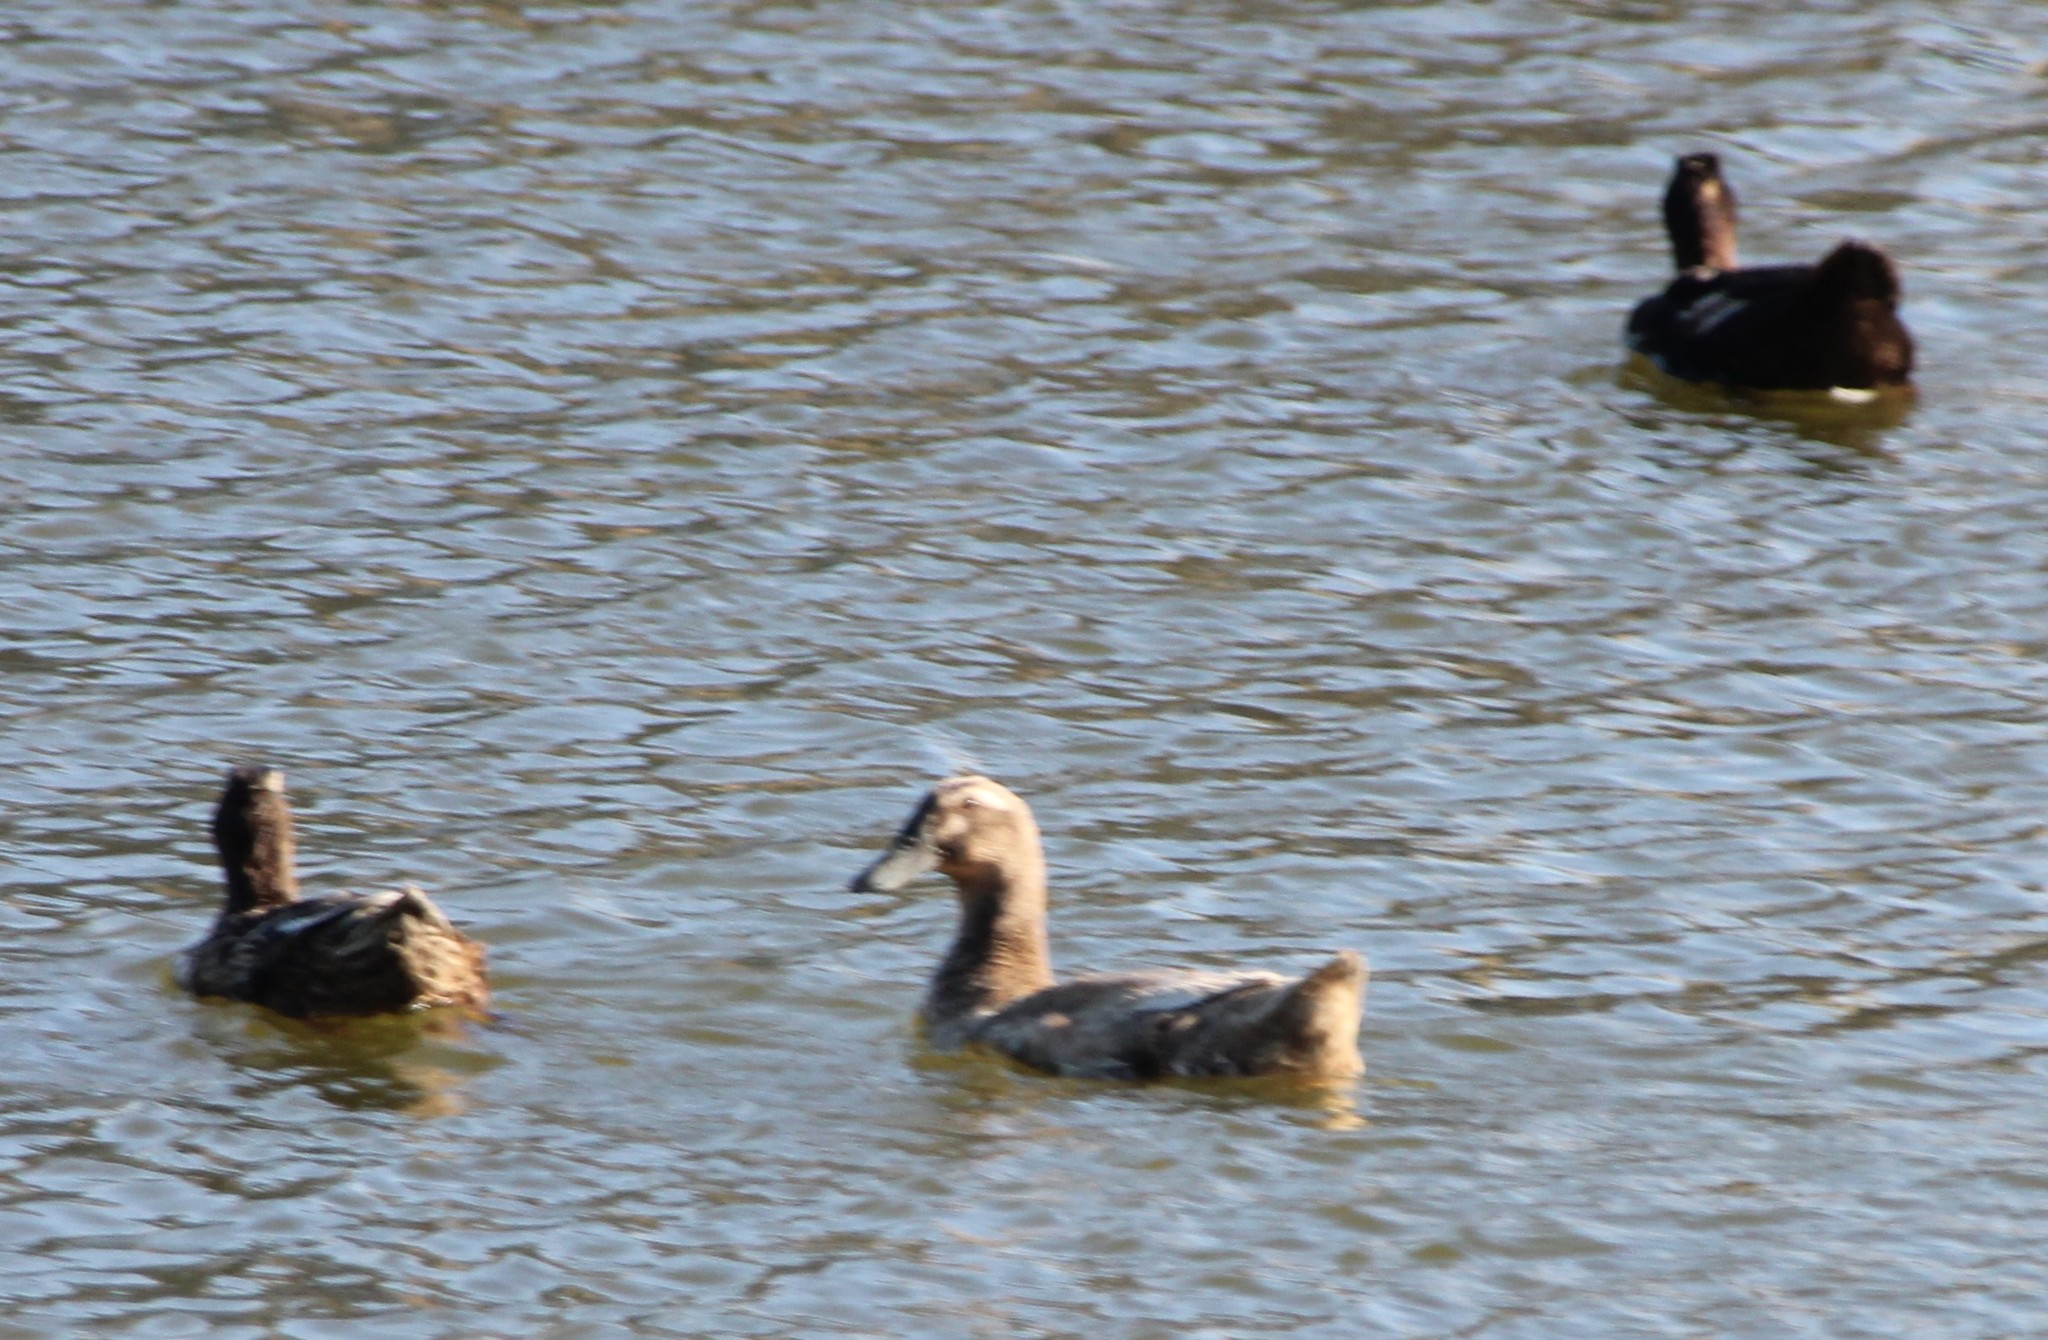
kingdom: Animalia
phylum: Chordata
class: Aves
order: Anseriformes
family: Anatidae
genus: Anas
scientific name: Anas platyrhynchos
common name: Mallard
